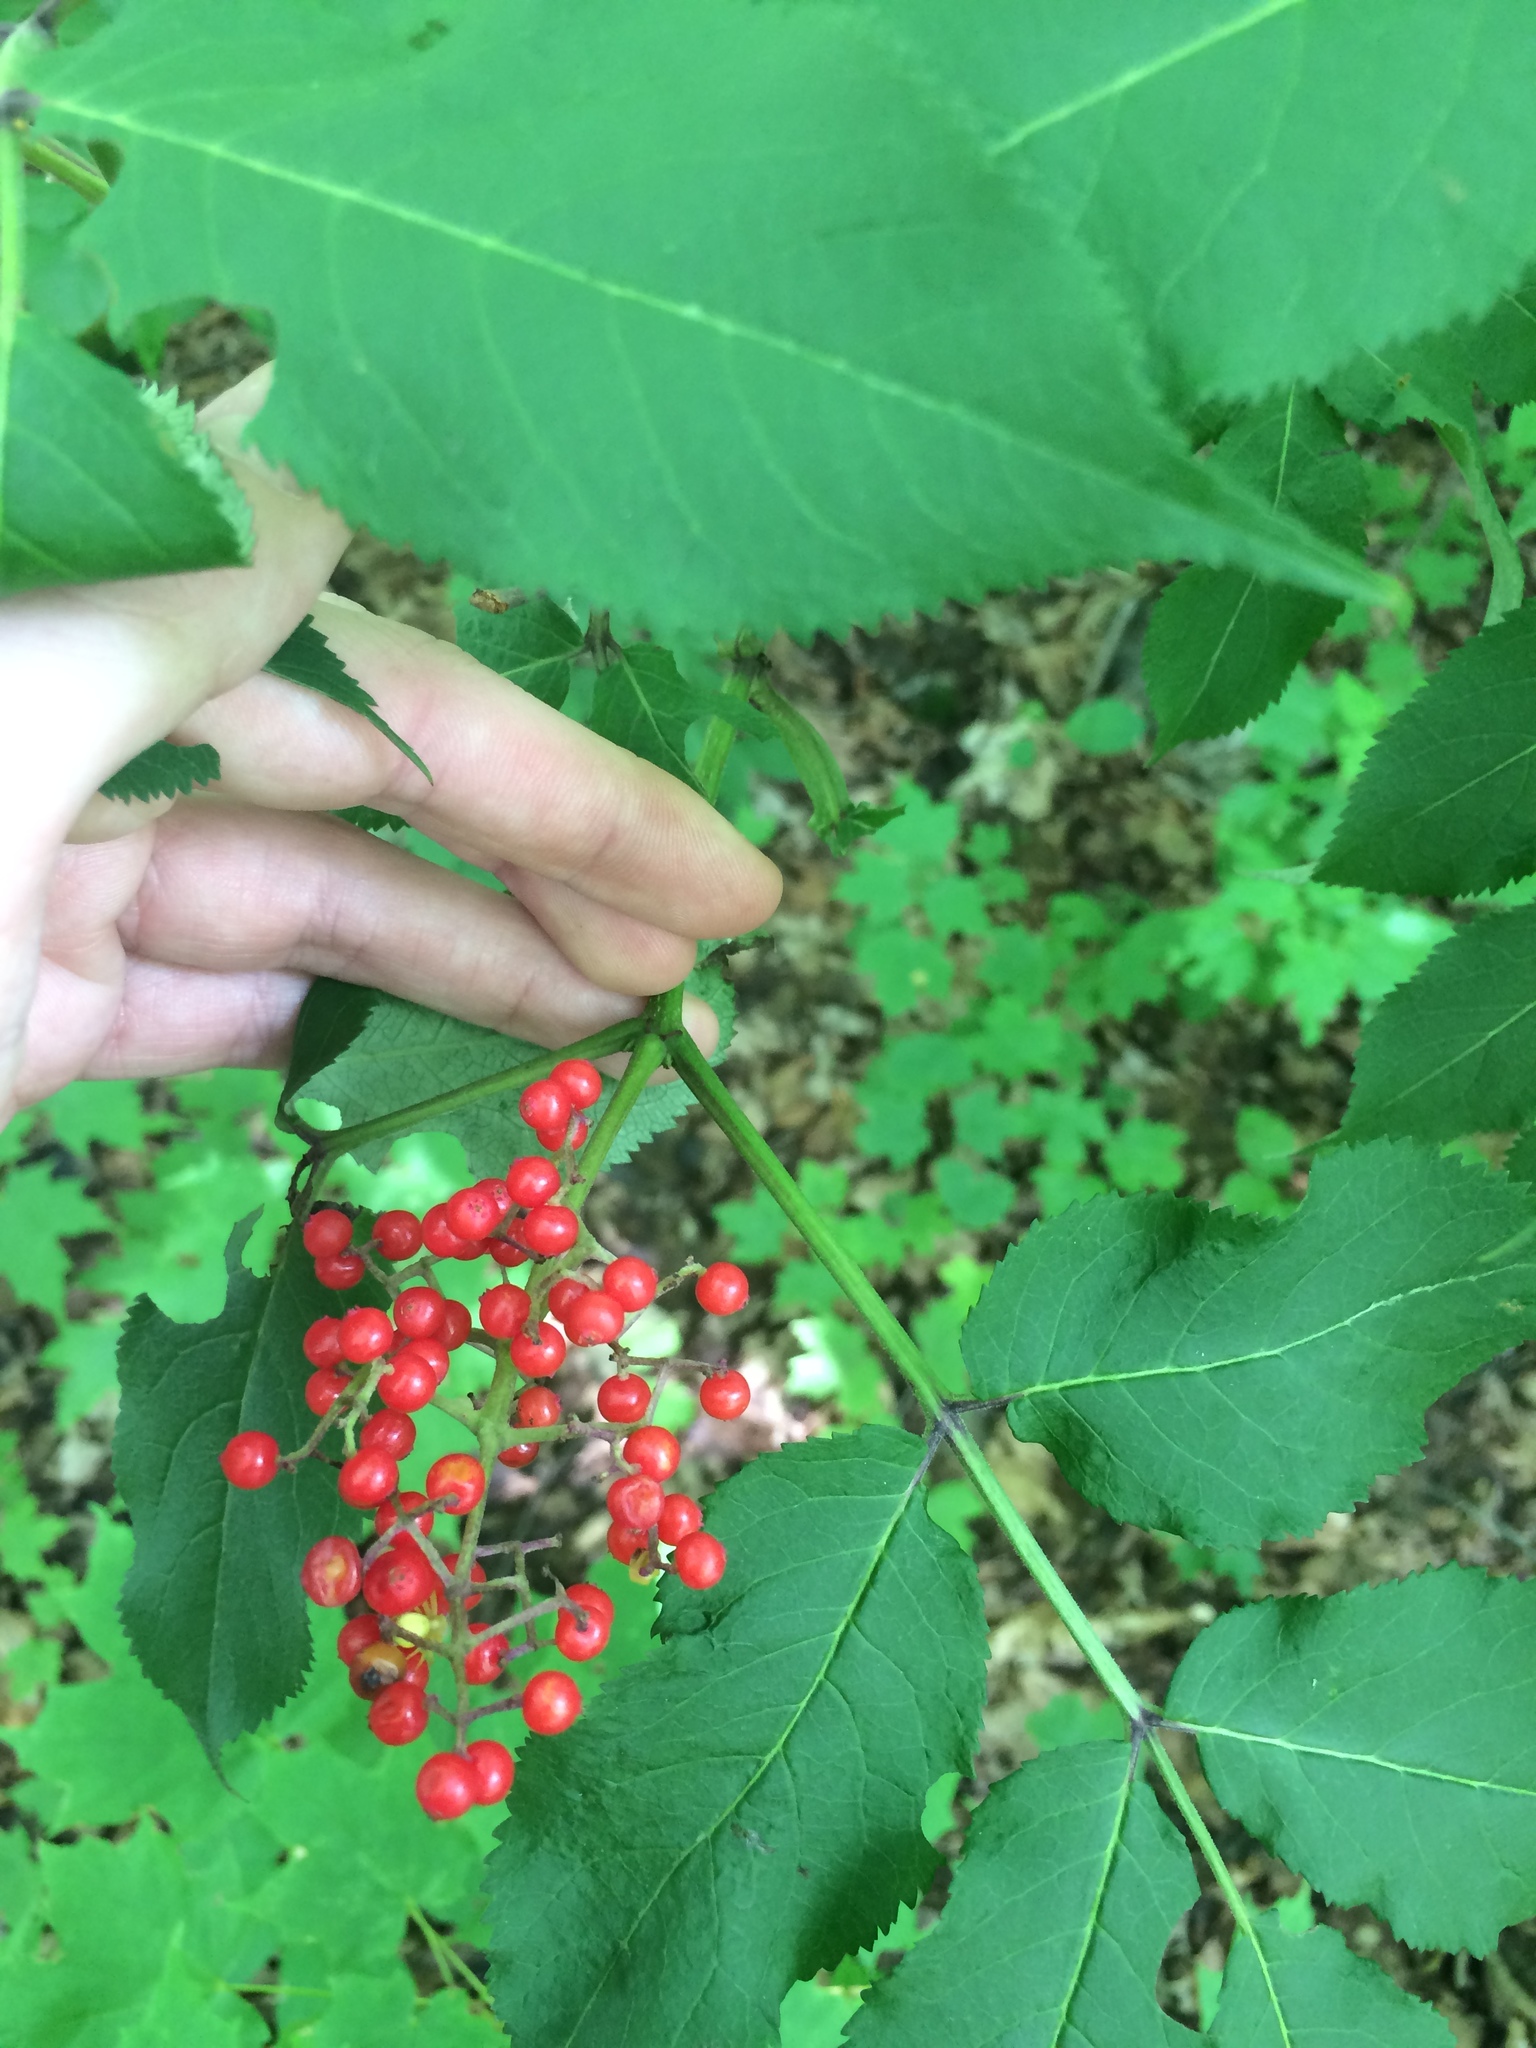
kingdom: Plantae
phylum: Tracheophyta
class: Magnoliopsida
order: Dipsacales
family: Viburnaceae
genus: Sambucus
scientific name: Sambucus racemosa
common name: Red-berried elder
